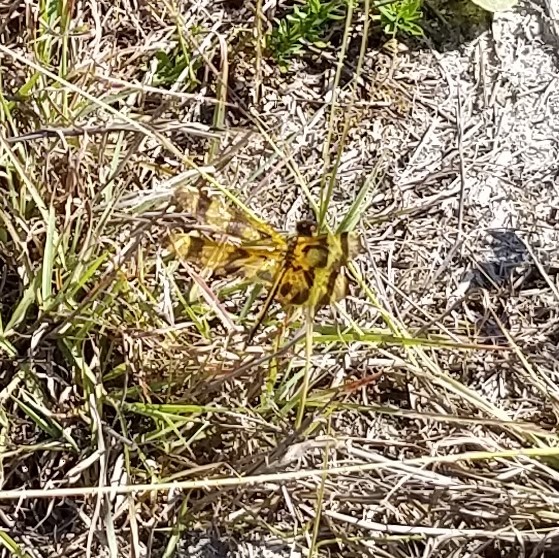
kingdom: Animalia
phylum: Arthropoda
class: Insecta
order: Odonata
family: Libellulidae
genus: Celithemis
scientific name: Celithemis eponina
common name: Halloween pennant
